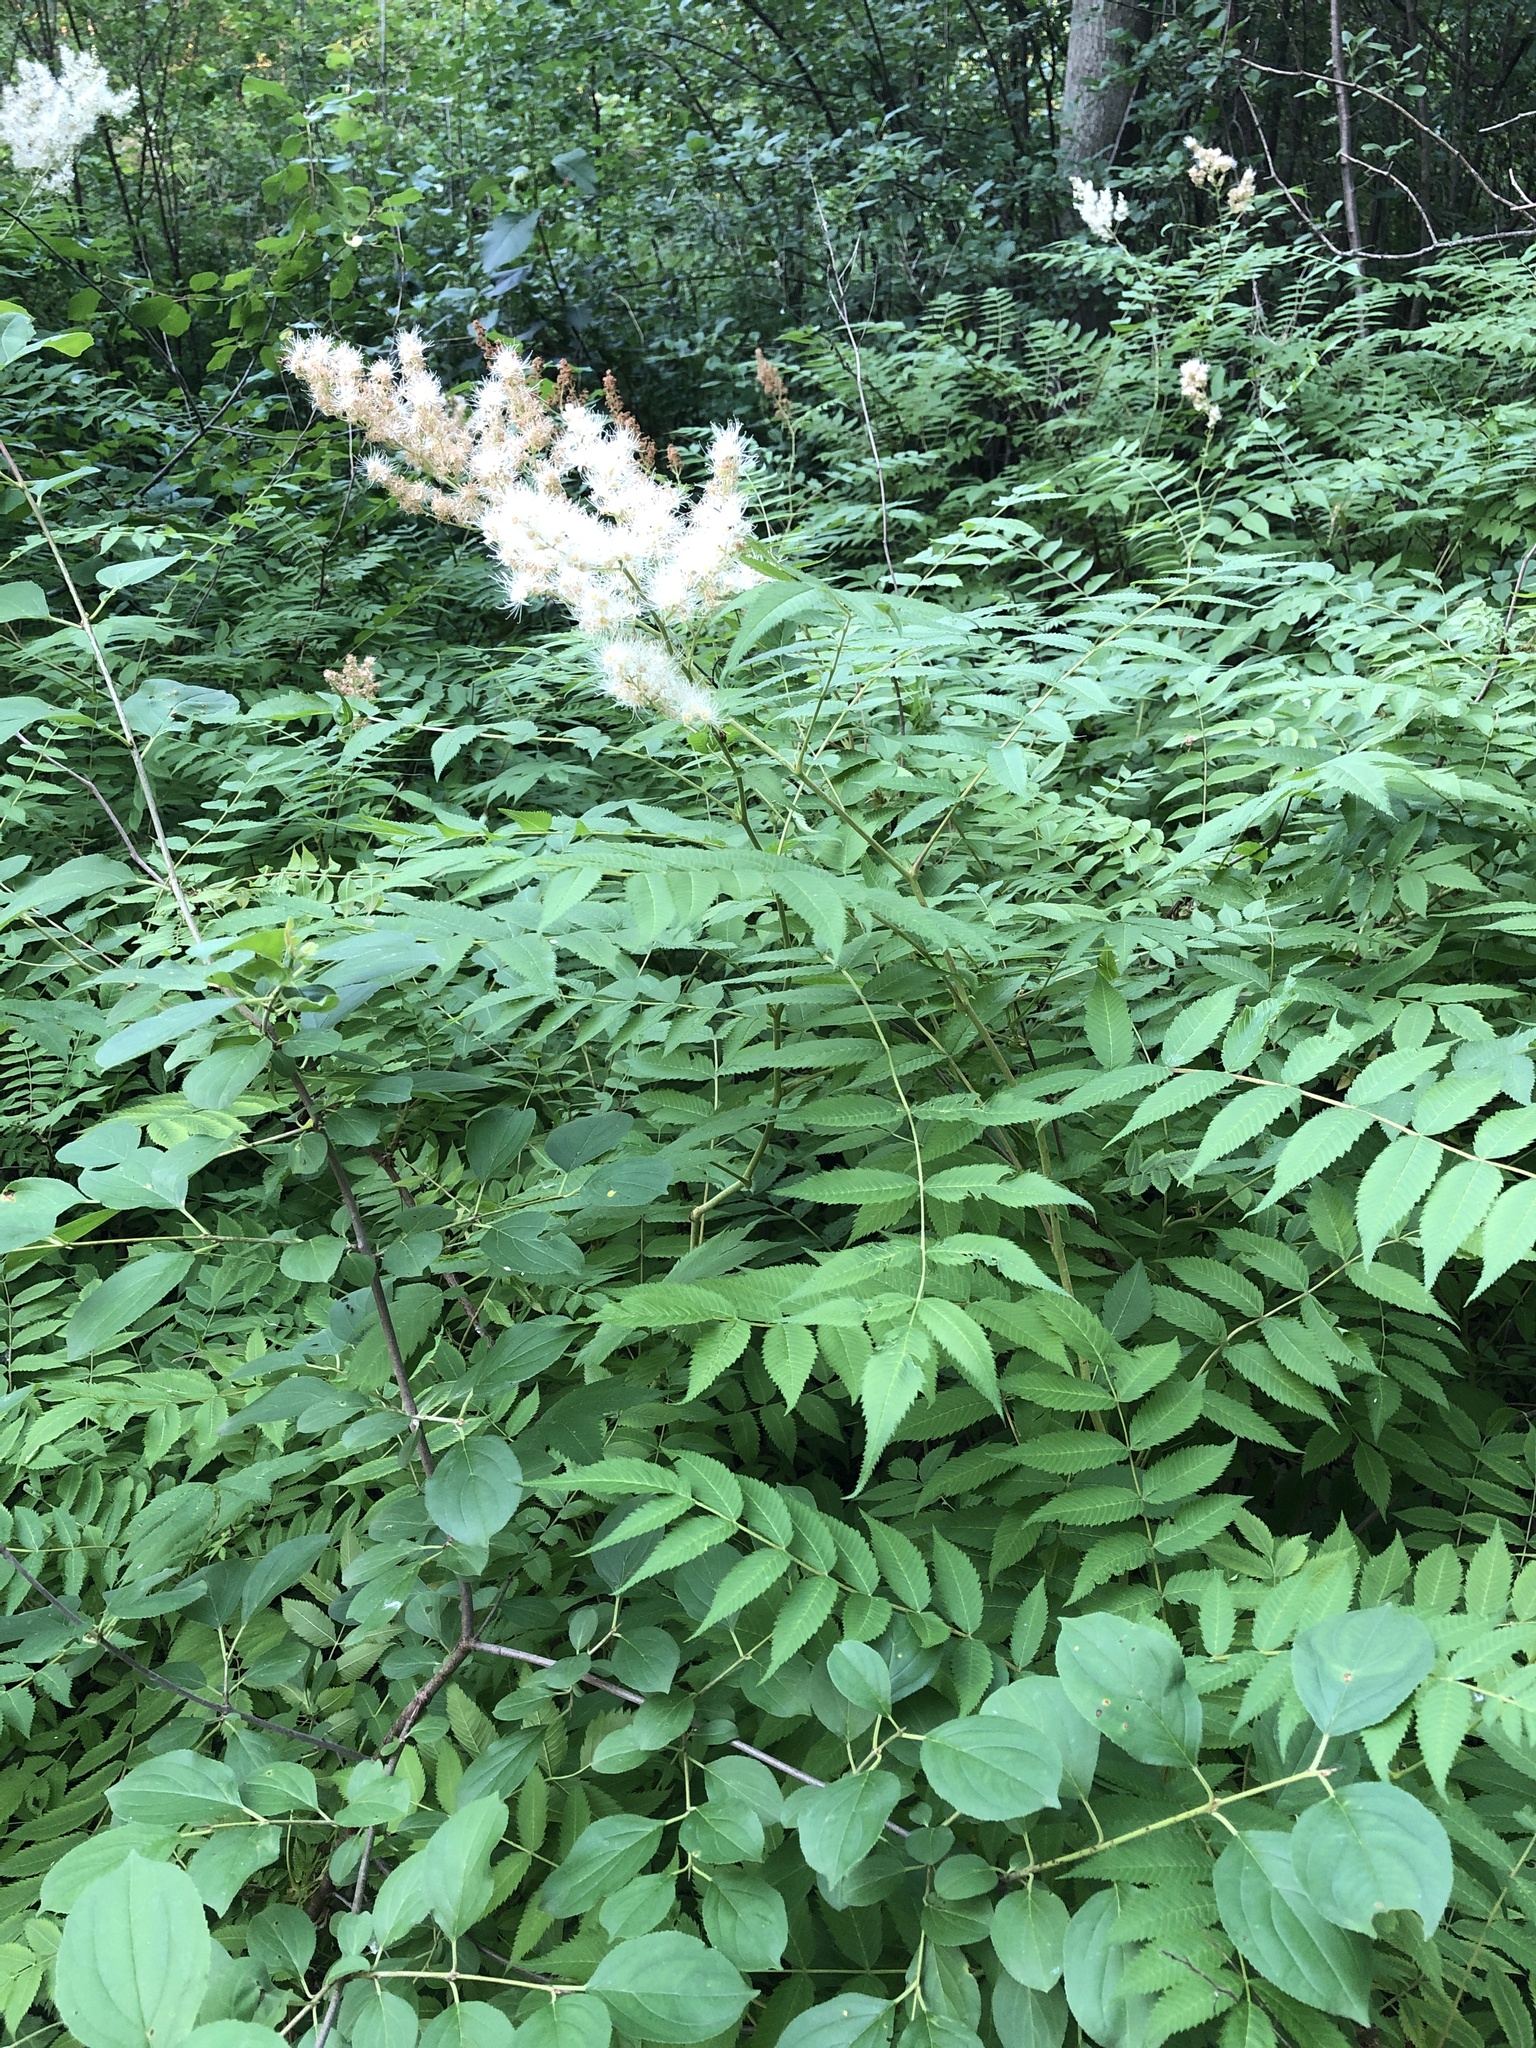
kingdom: Plantae
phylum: Tracheophyta
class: Magnoliopsida
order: Rosales
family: Rosaceae
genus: Sorbaria
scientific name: Sorbaria sorbifolia
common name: False spiraea
